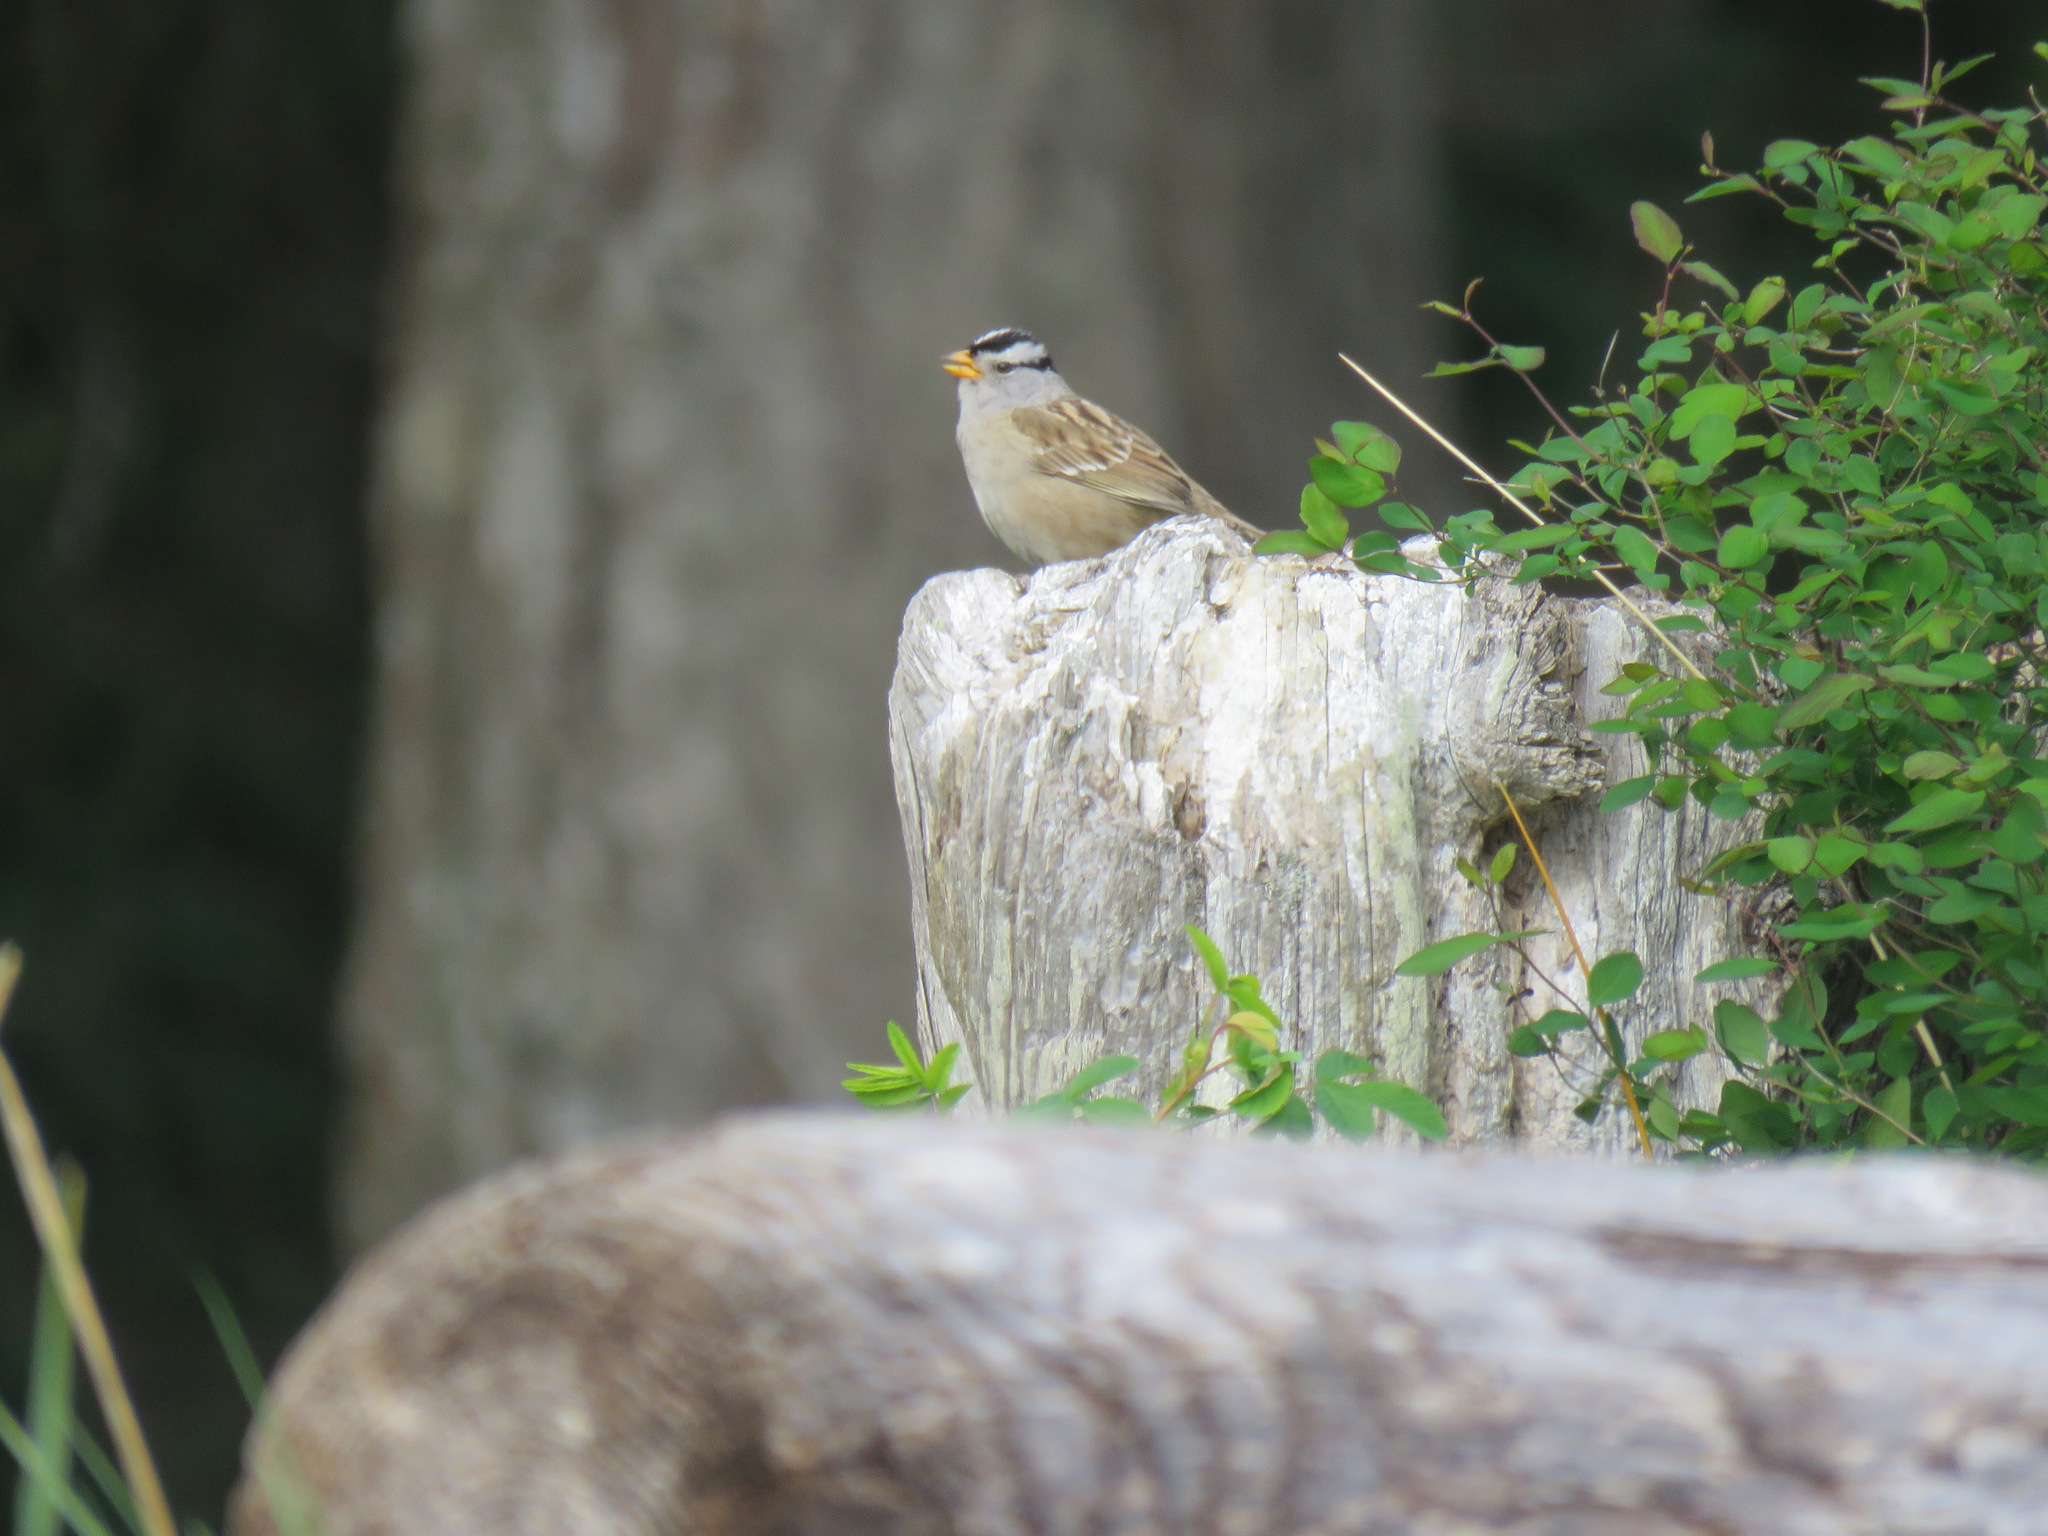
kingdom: Animalia
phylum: Chordata
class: Aves
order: Passeriformes
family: Passerellidae
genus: Zonotrichia
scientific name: Zonotrichia leucophrys
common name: White-crowned sparrow
